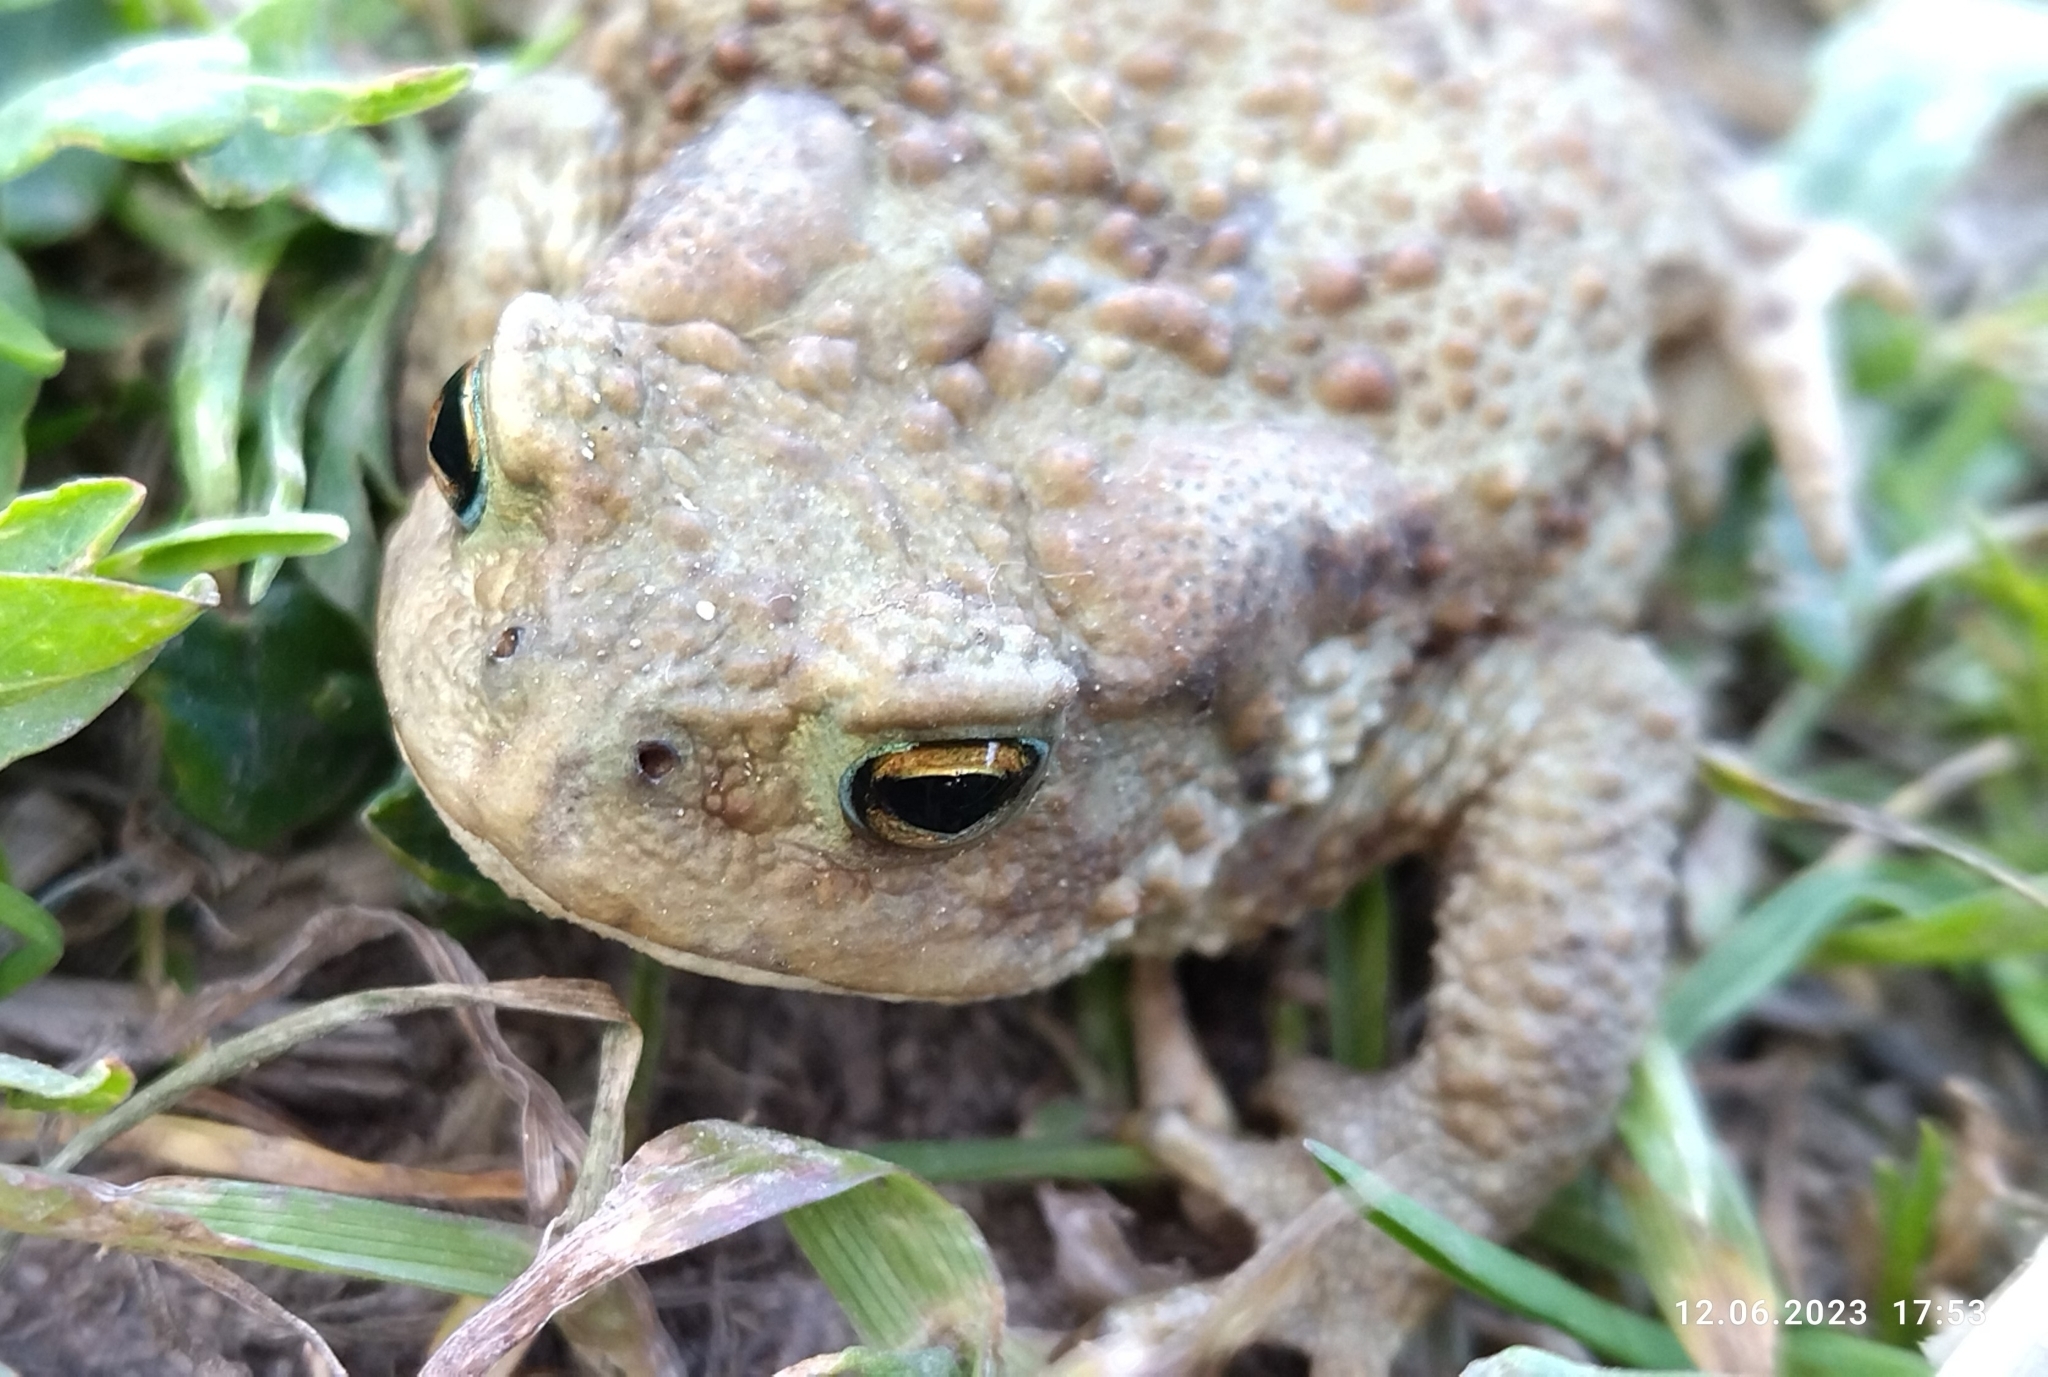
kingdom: Animalia
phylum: Chordata
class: Amphibia
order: Anura
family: Bufonidae
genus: Bufo
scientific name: Bufo bufo
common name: Common toad
